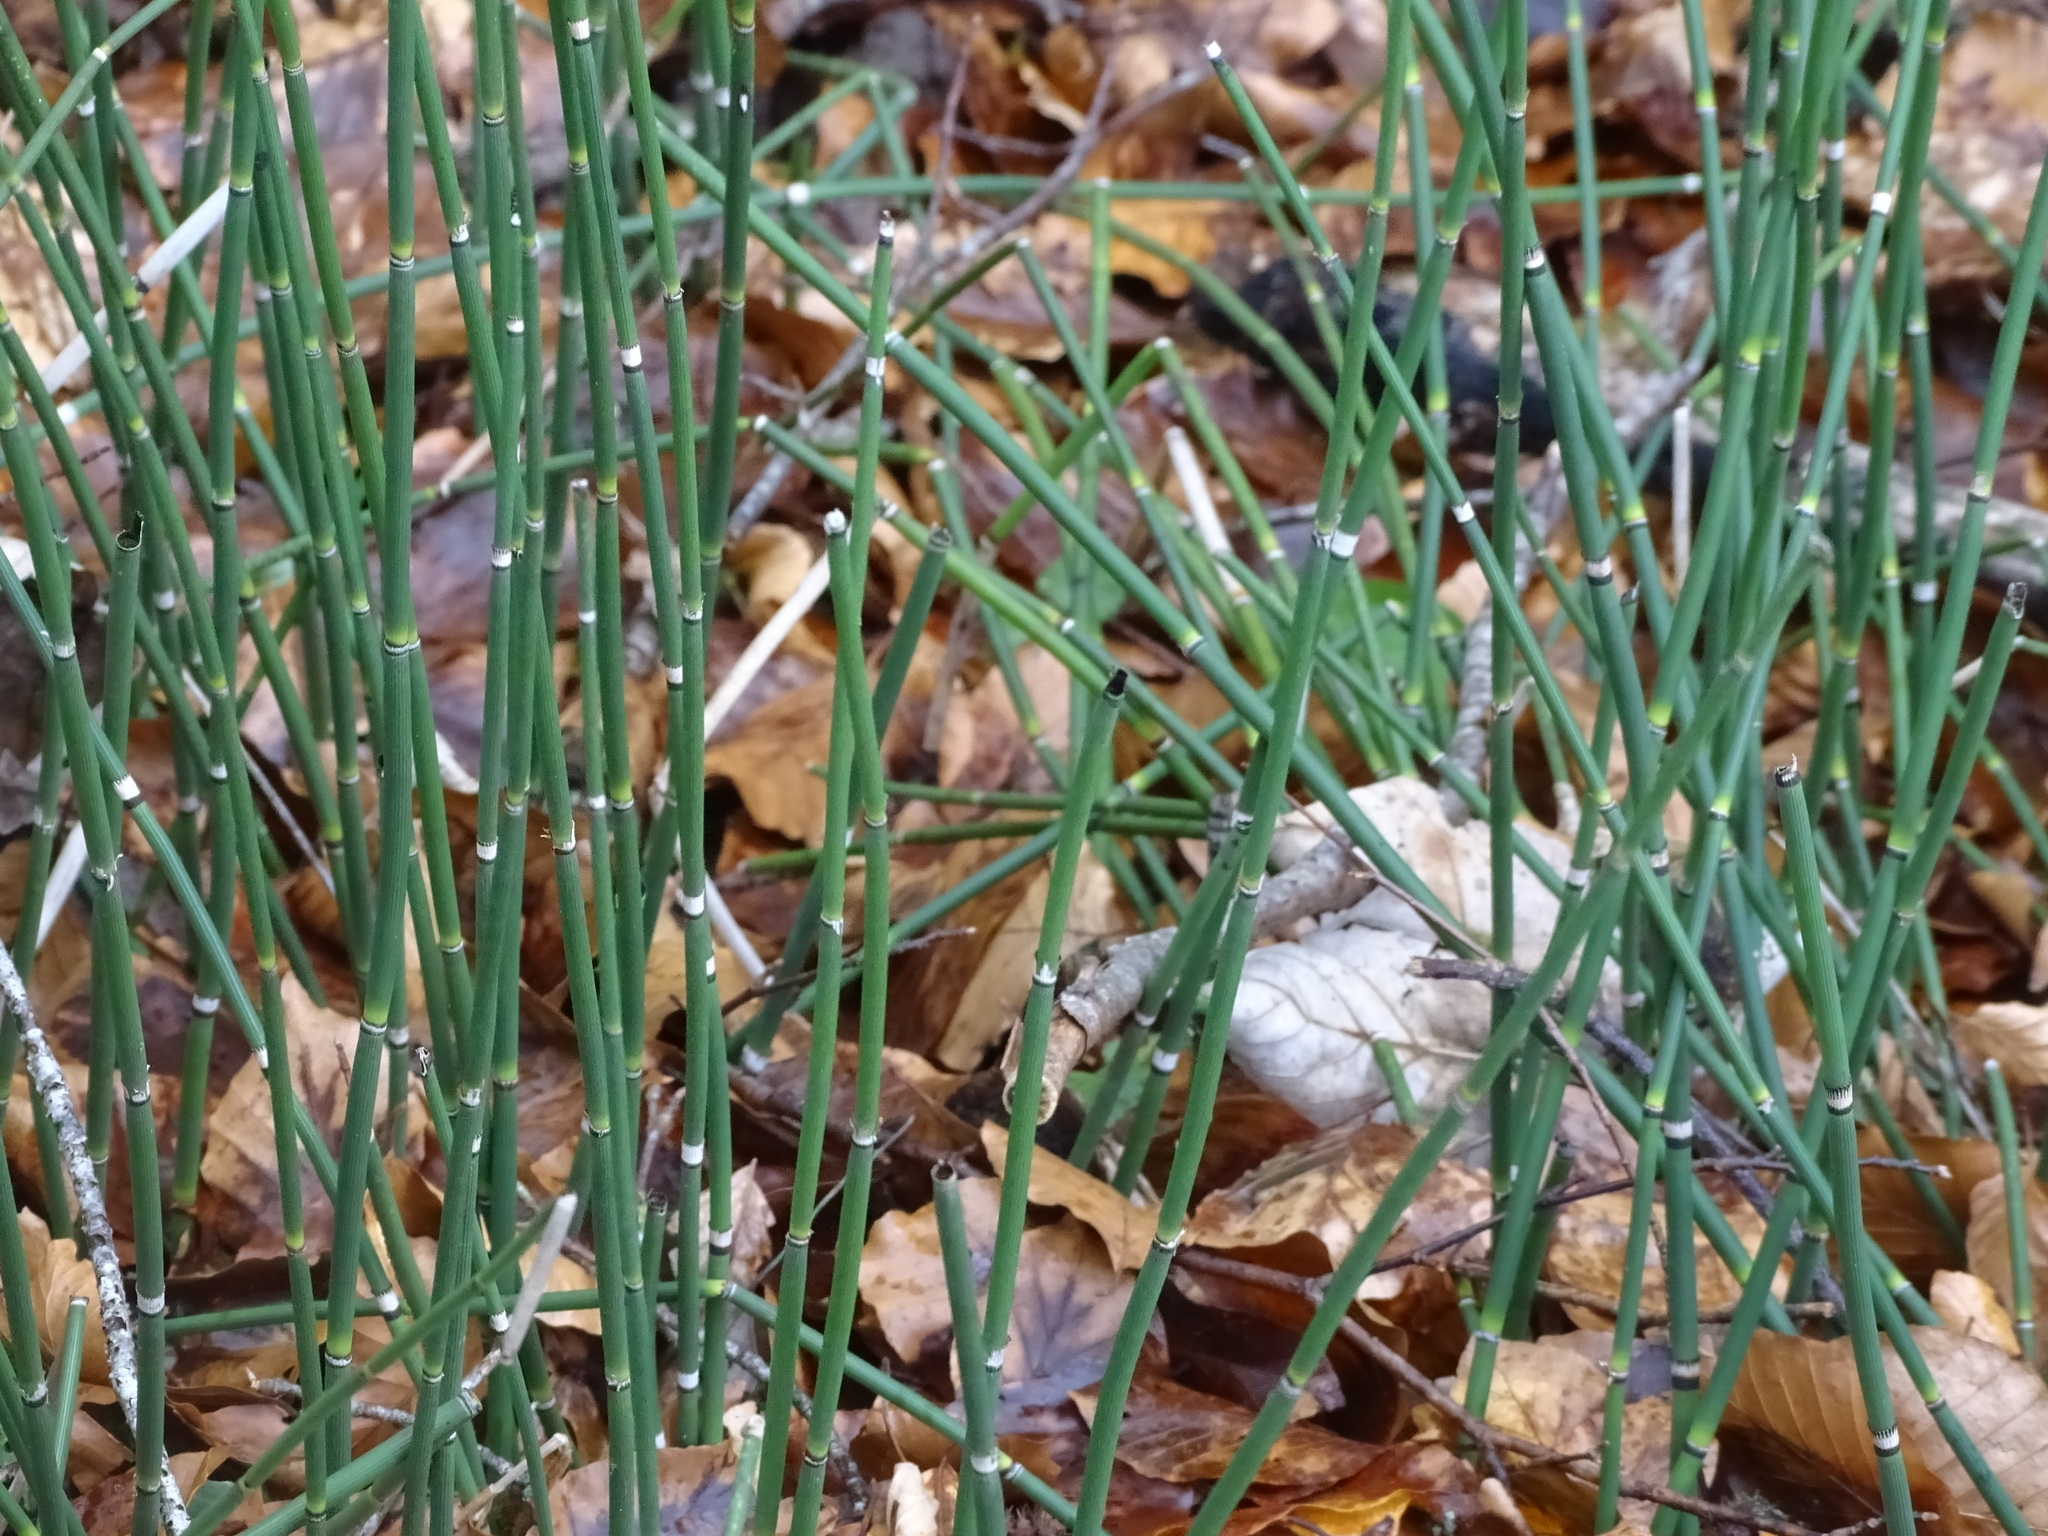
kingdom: Plantae
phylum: Tracheophyta
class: Polypodiopsida
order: Equisetales
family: Equisetaceae
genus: Equisetum
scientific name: Equisetum hyemale
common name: Rough horsetail
